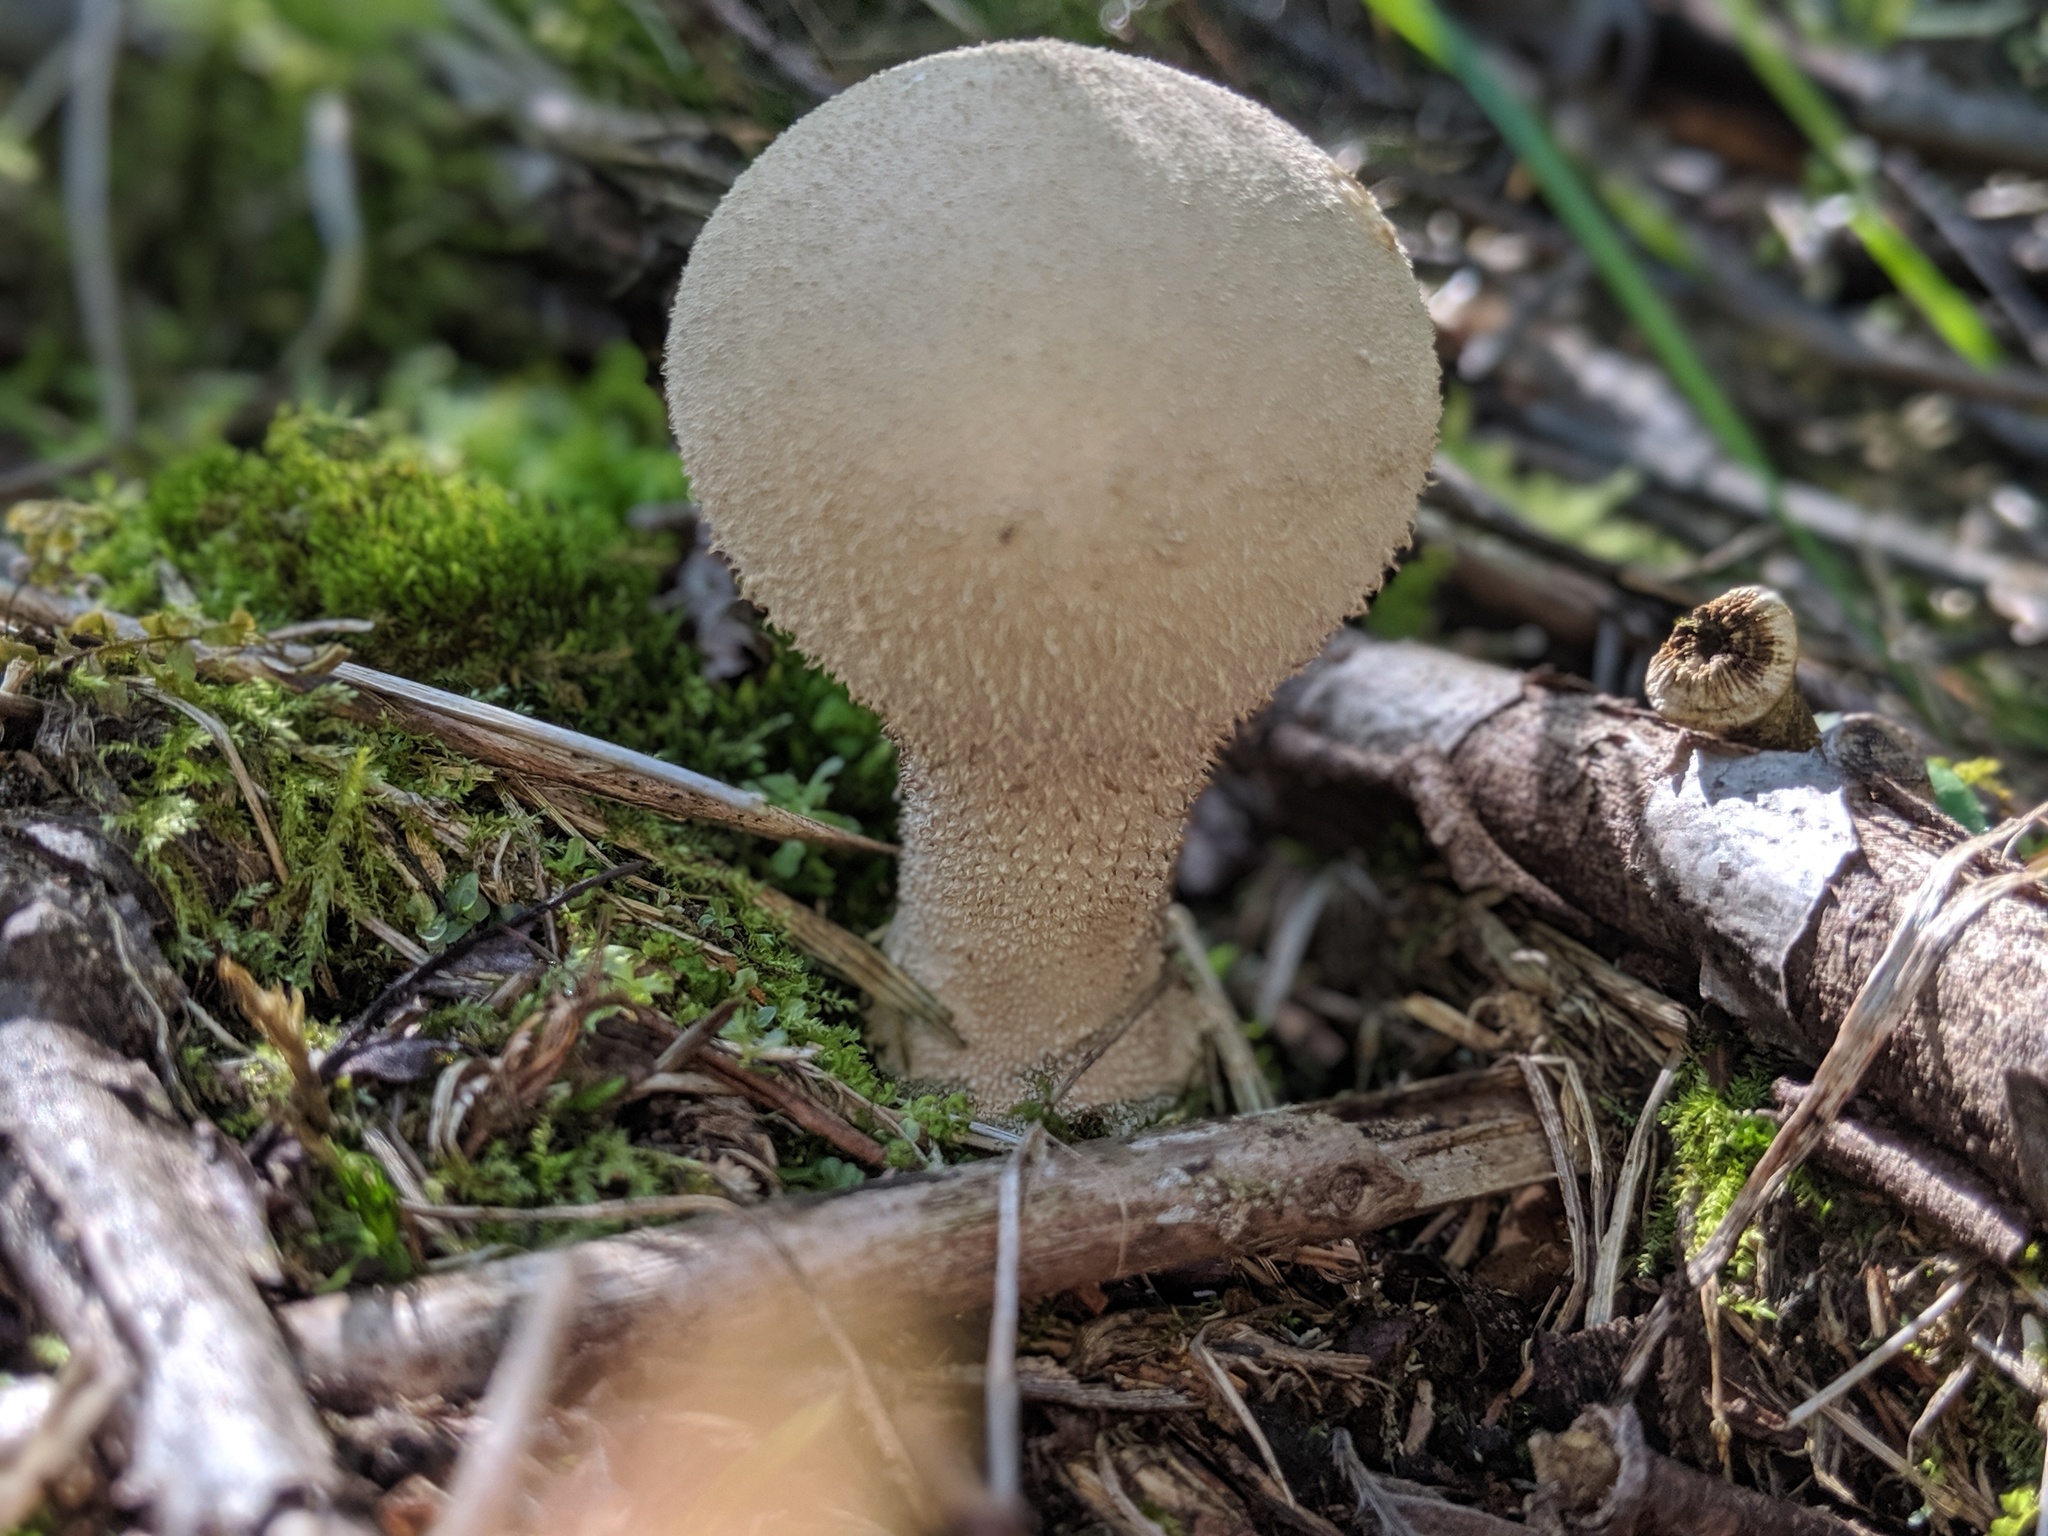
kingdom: Fungi
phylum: Basidiomycota
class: Agaricomycetes
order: Agaricales
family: Lycoperdaceae
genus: Lycoperdon
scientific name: Lycoperdon perlatum
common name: Common puffball
